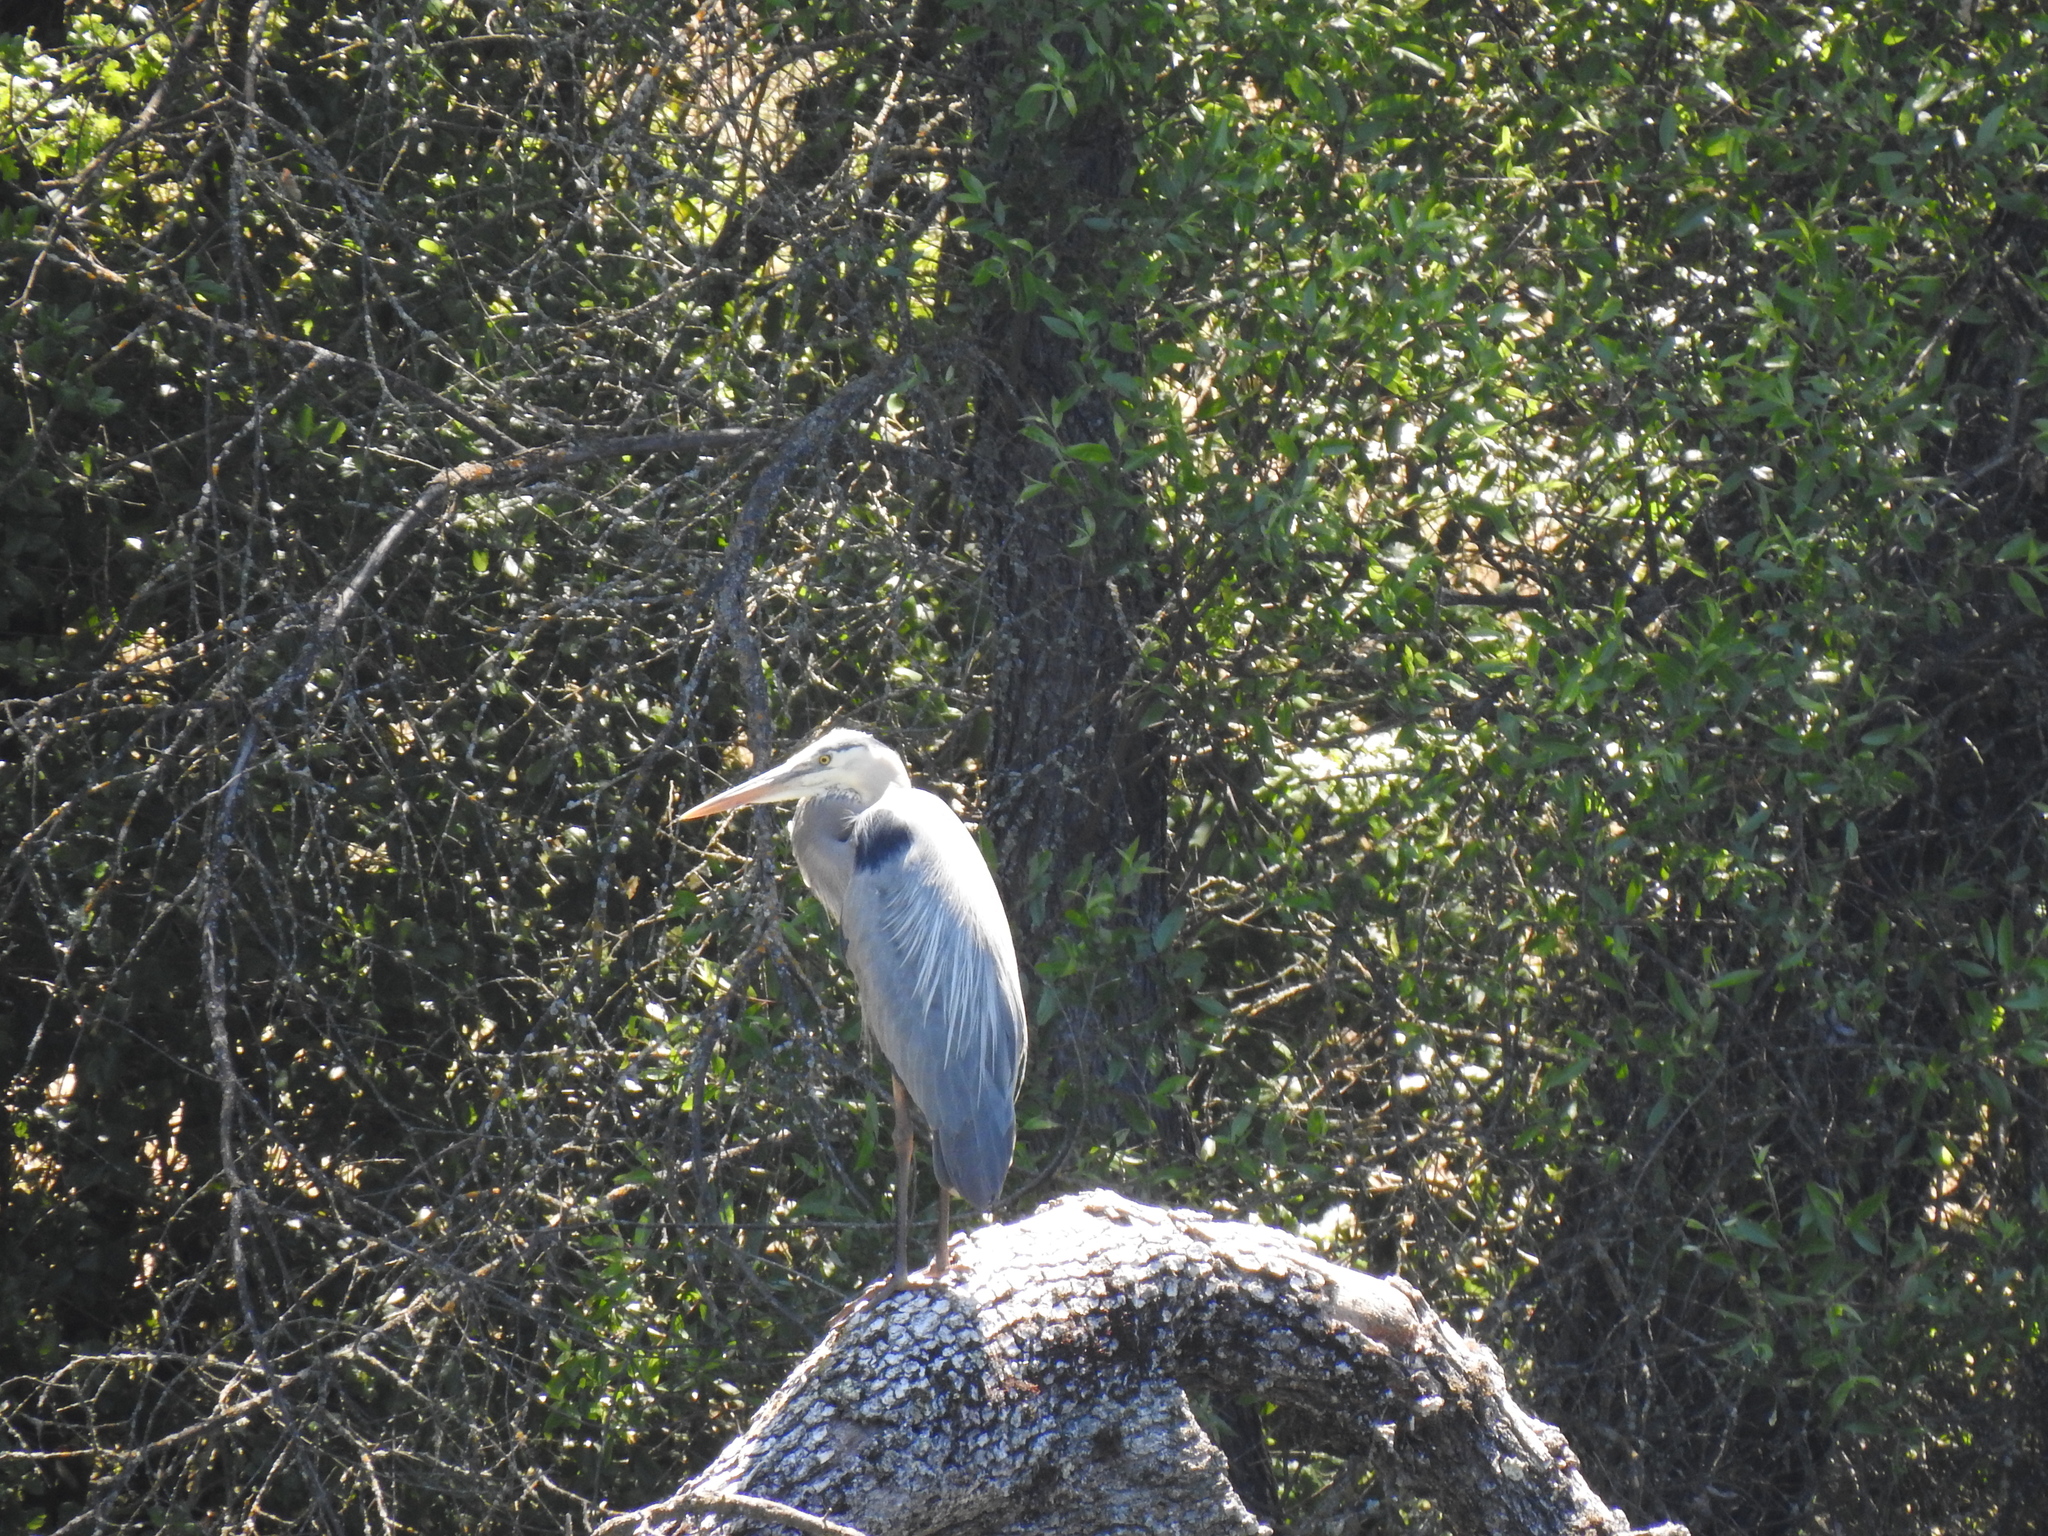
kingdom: Animalia
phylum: Chordata
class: Aves
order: Pelecaniformes
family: Ardeidae
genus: Ardea
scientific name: Ardea herodias
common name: Great blue heron
